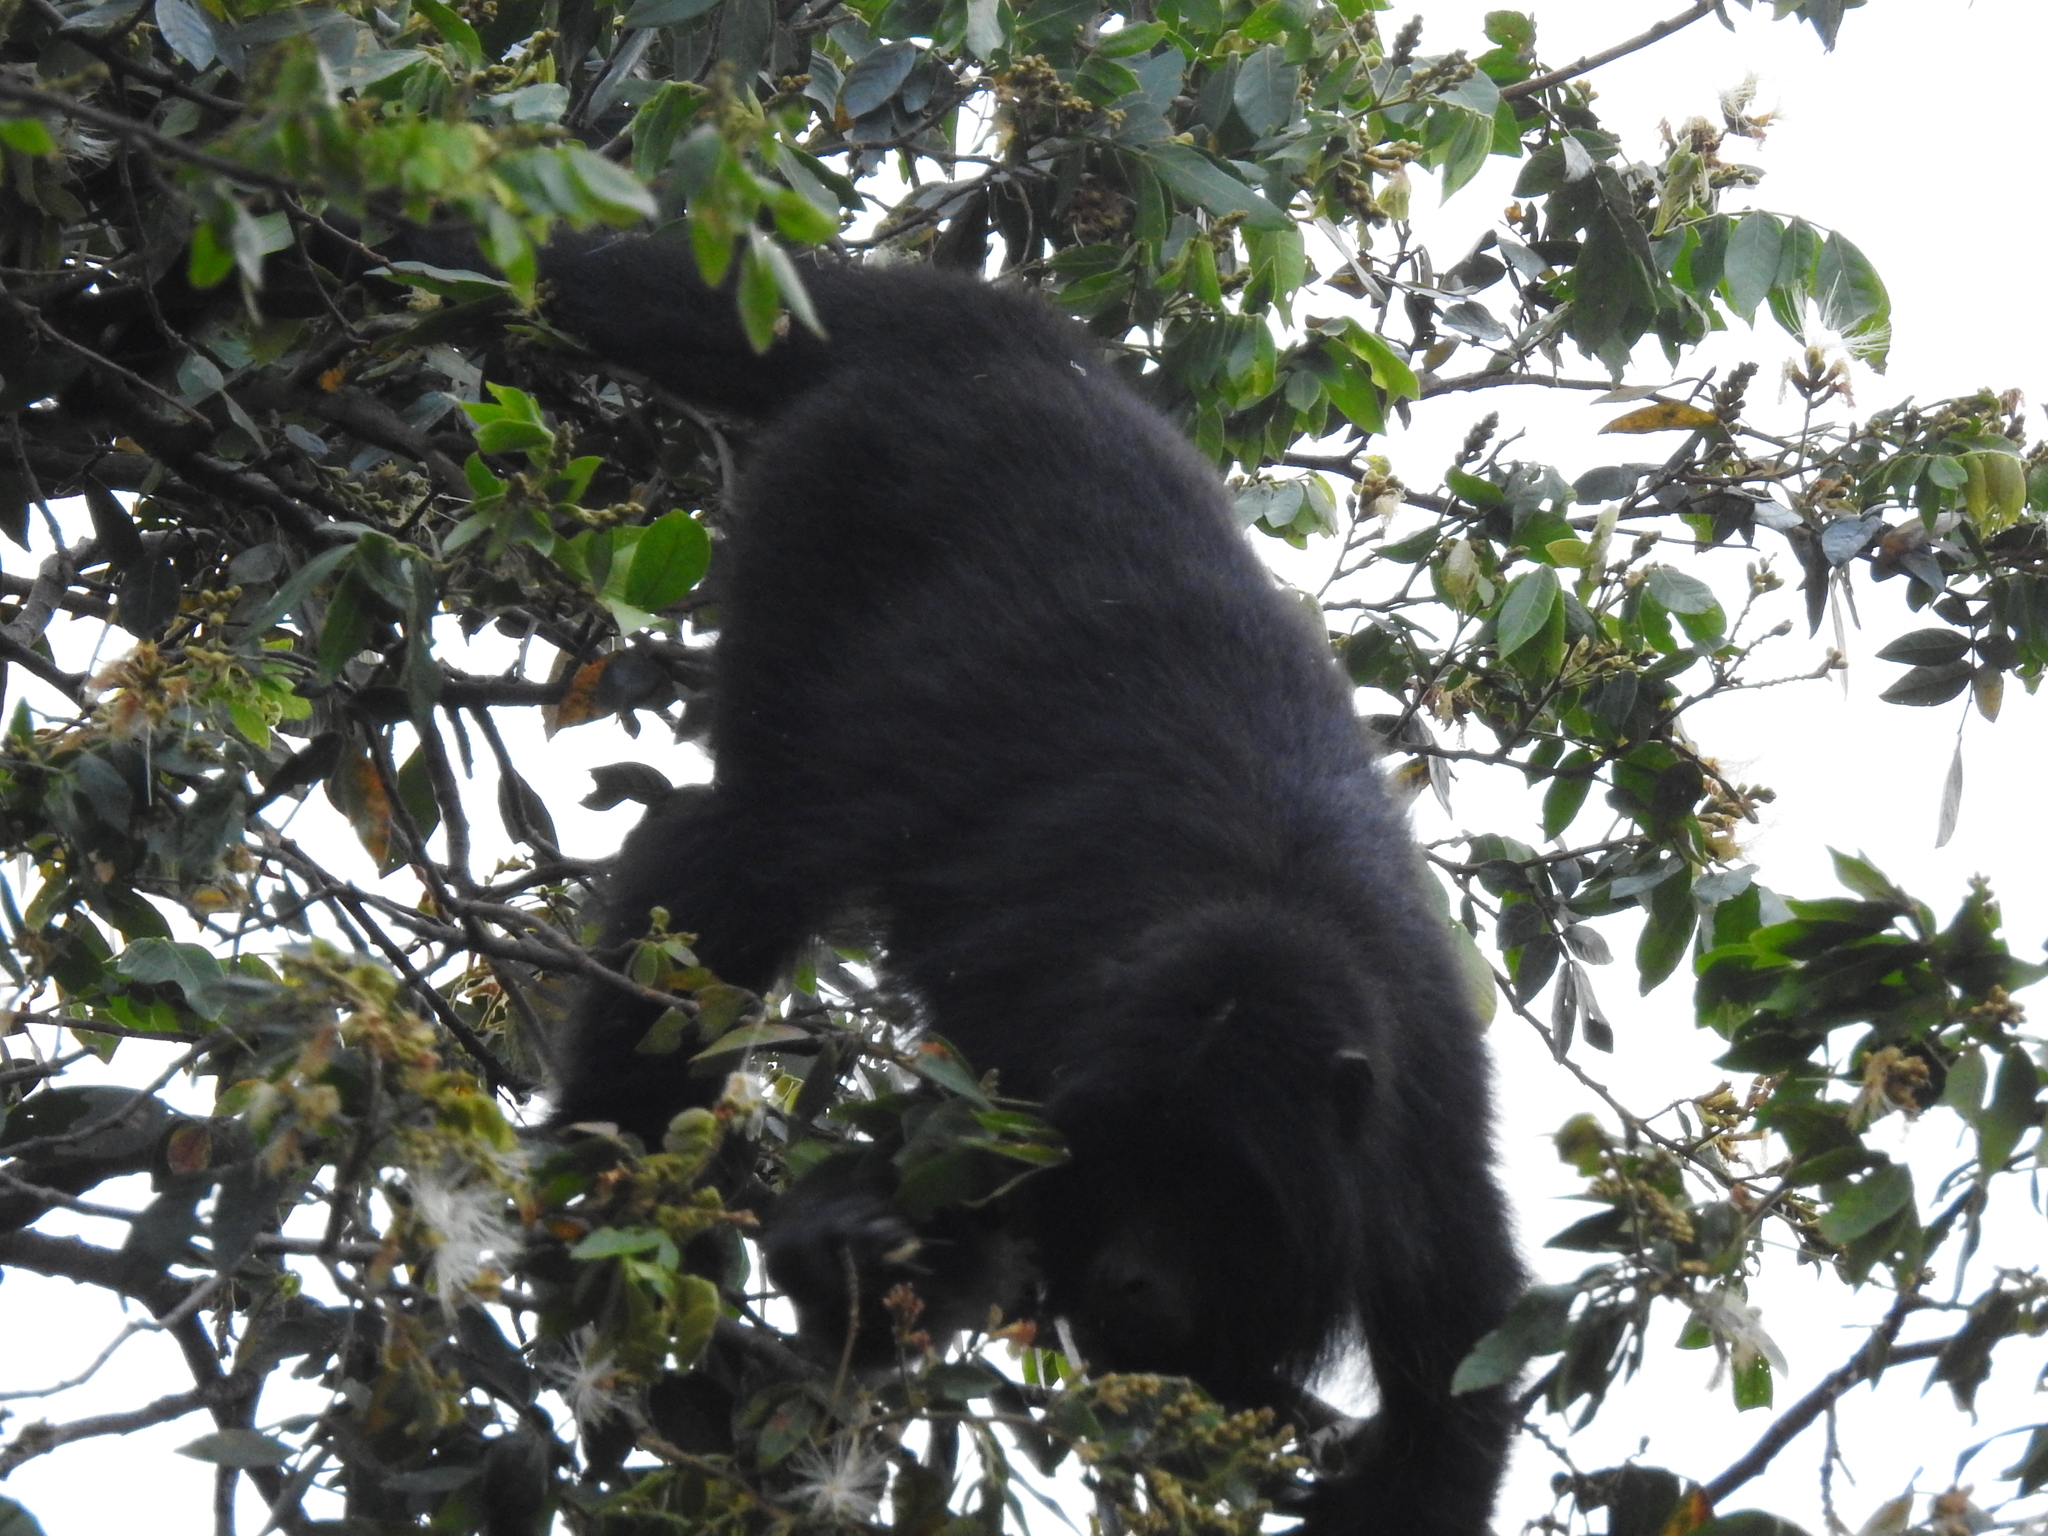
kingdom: Animalia
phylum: Chordata
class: Mammalia
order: Primates
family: Atelidae
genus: Alouatta
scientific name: Alouatta caraya
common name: Black howler
